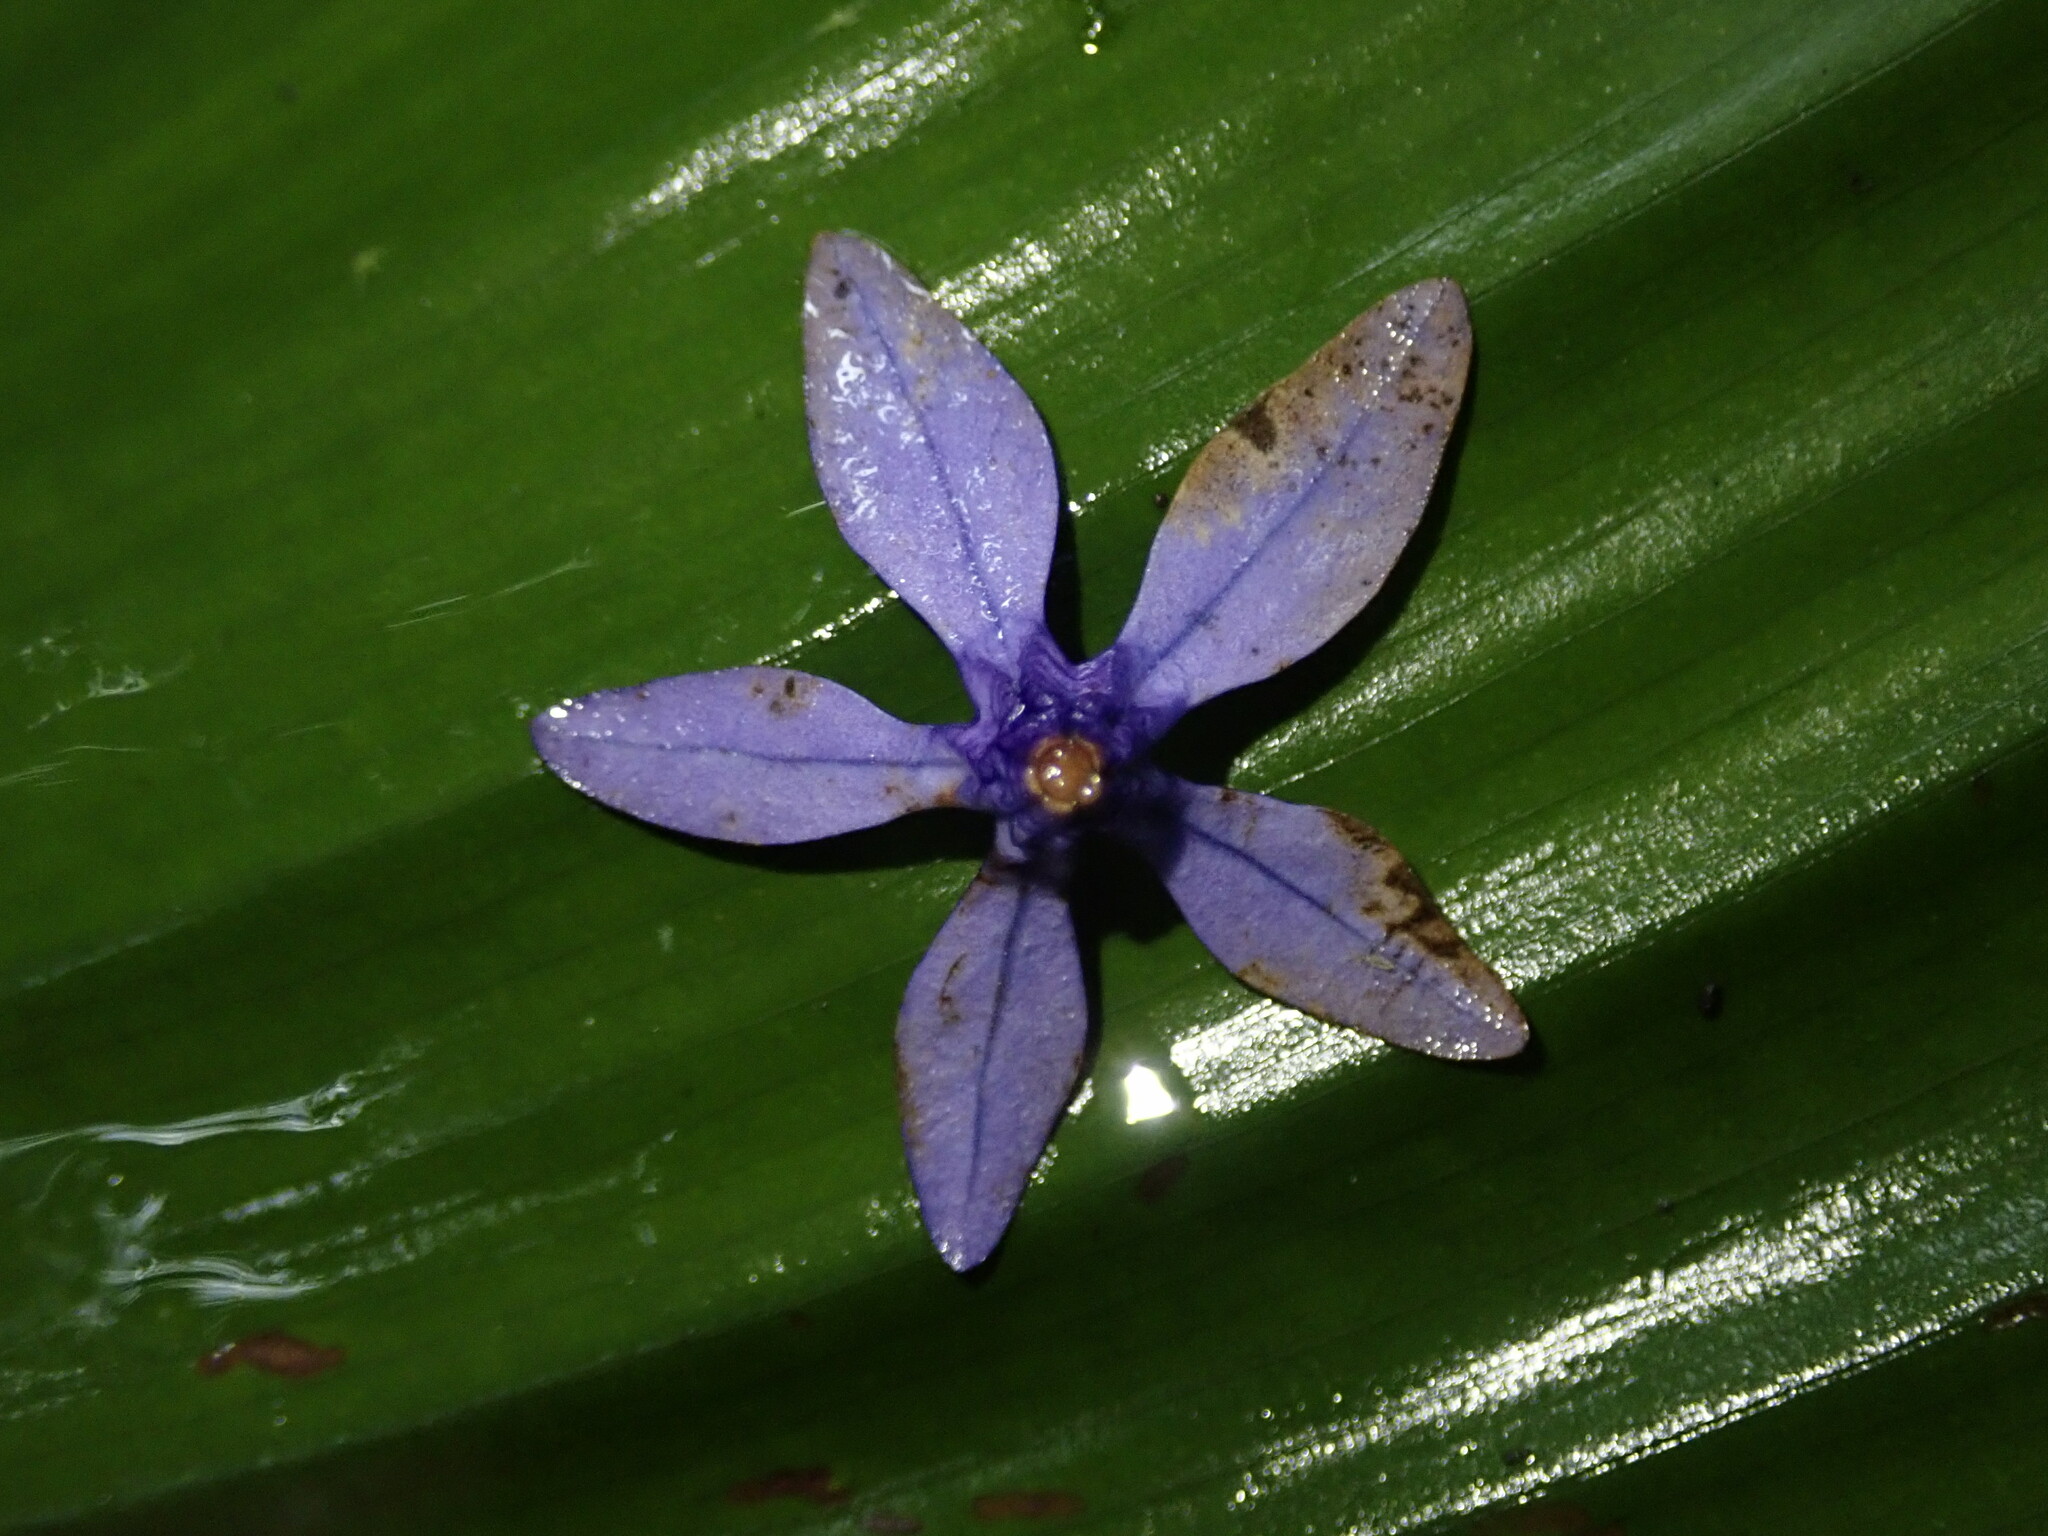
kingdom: Plantae
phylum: Tracheophyta
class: Magnoliopsida
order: Lamiales
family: Verbenaceae
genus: Petrea
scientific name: Petrea volubilis
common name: Queen's-wreath
